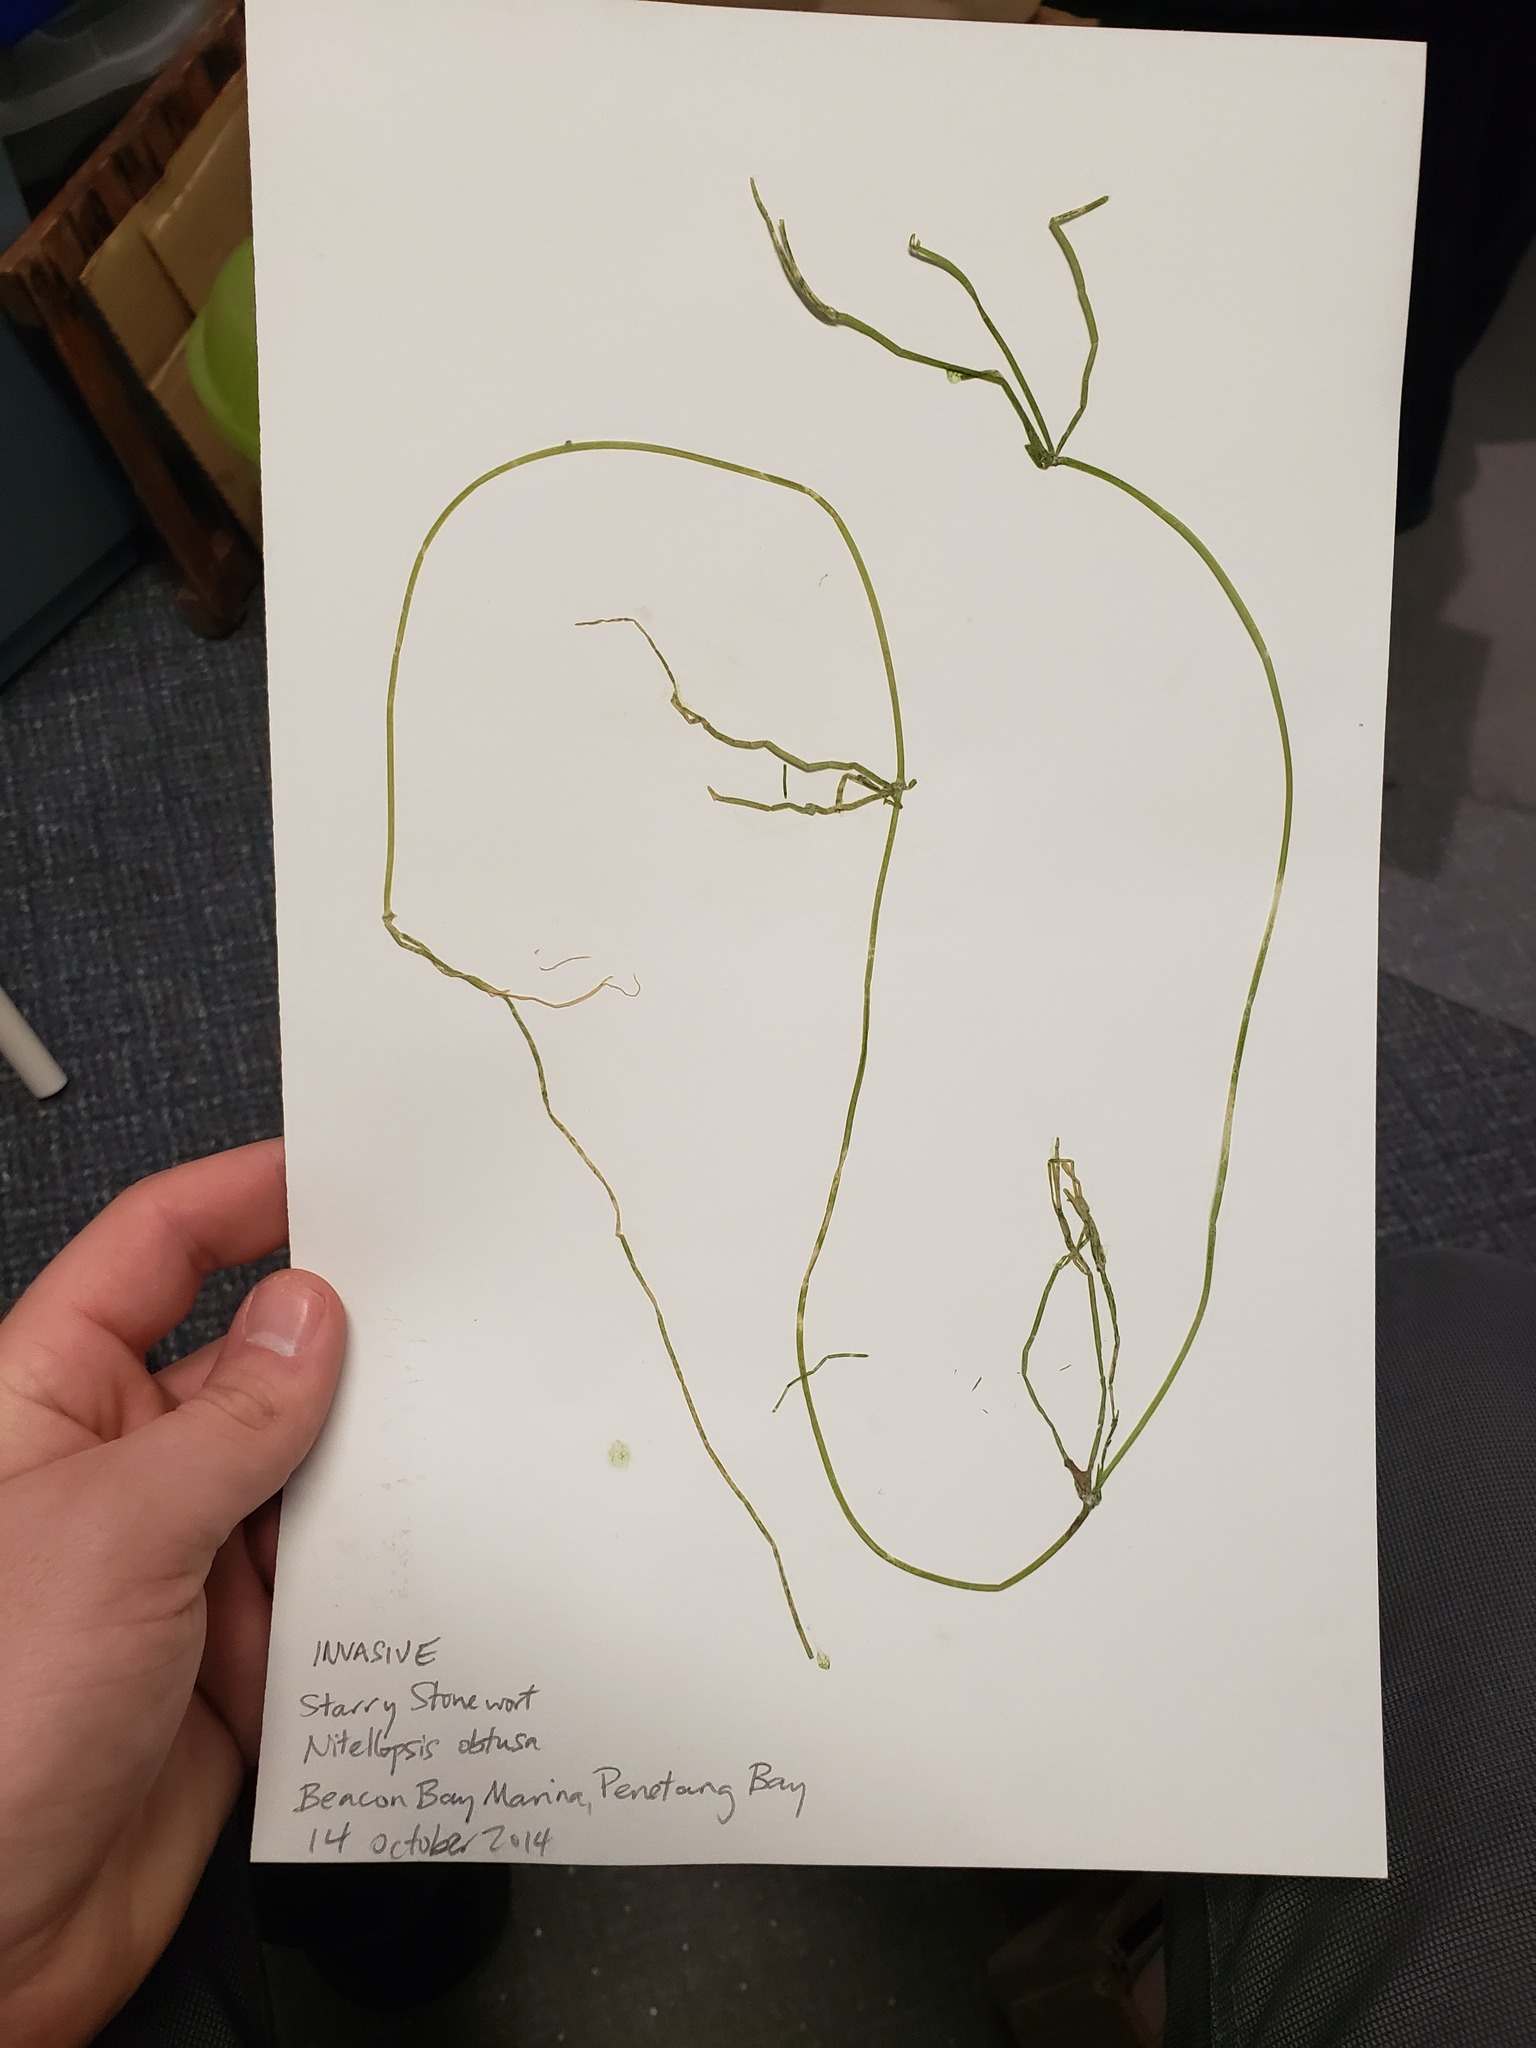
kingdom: Plantae
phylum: Charophyta
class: Charophyceae
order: Charales
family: Characeae
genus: Nitellopsis
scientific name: Nitellopsis obtusa
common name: Starry stonewort
